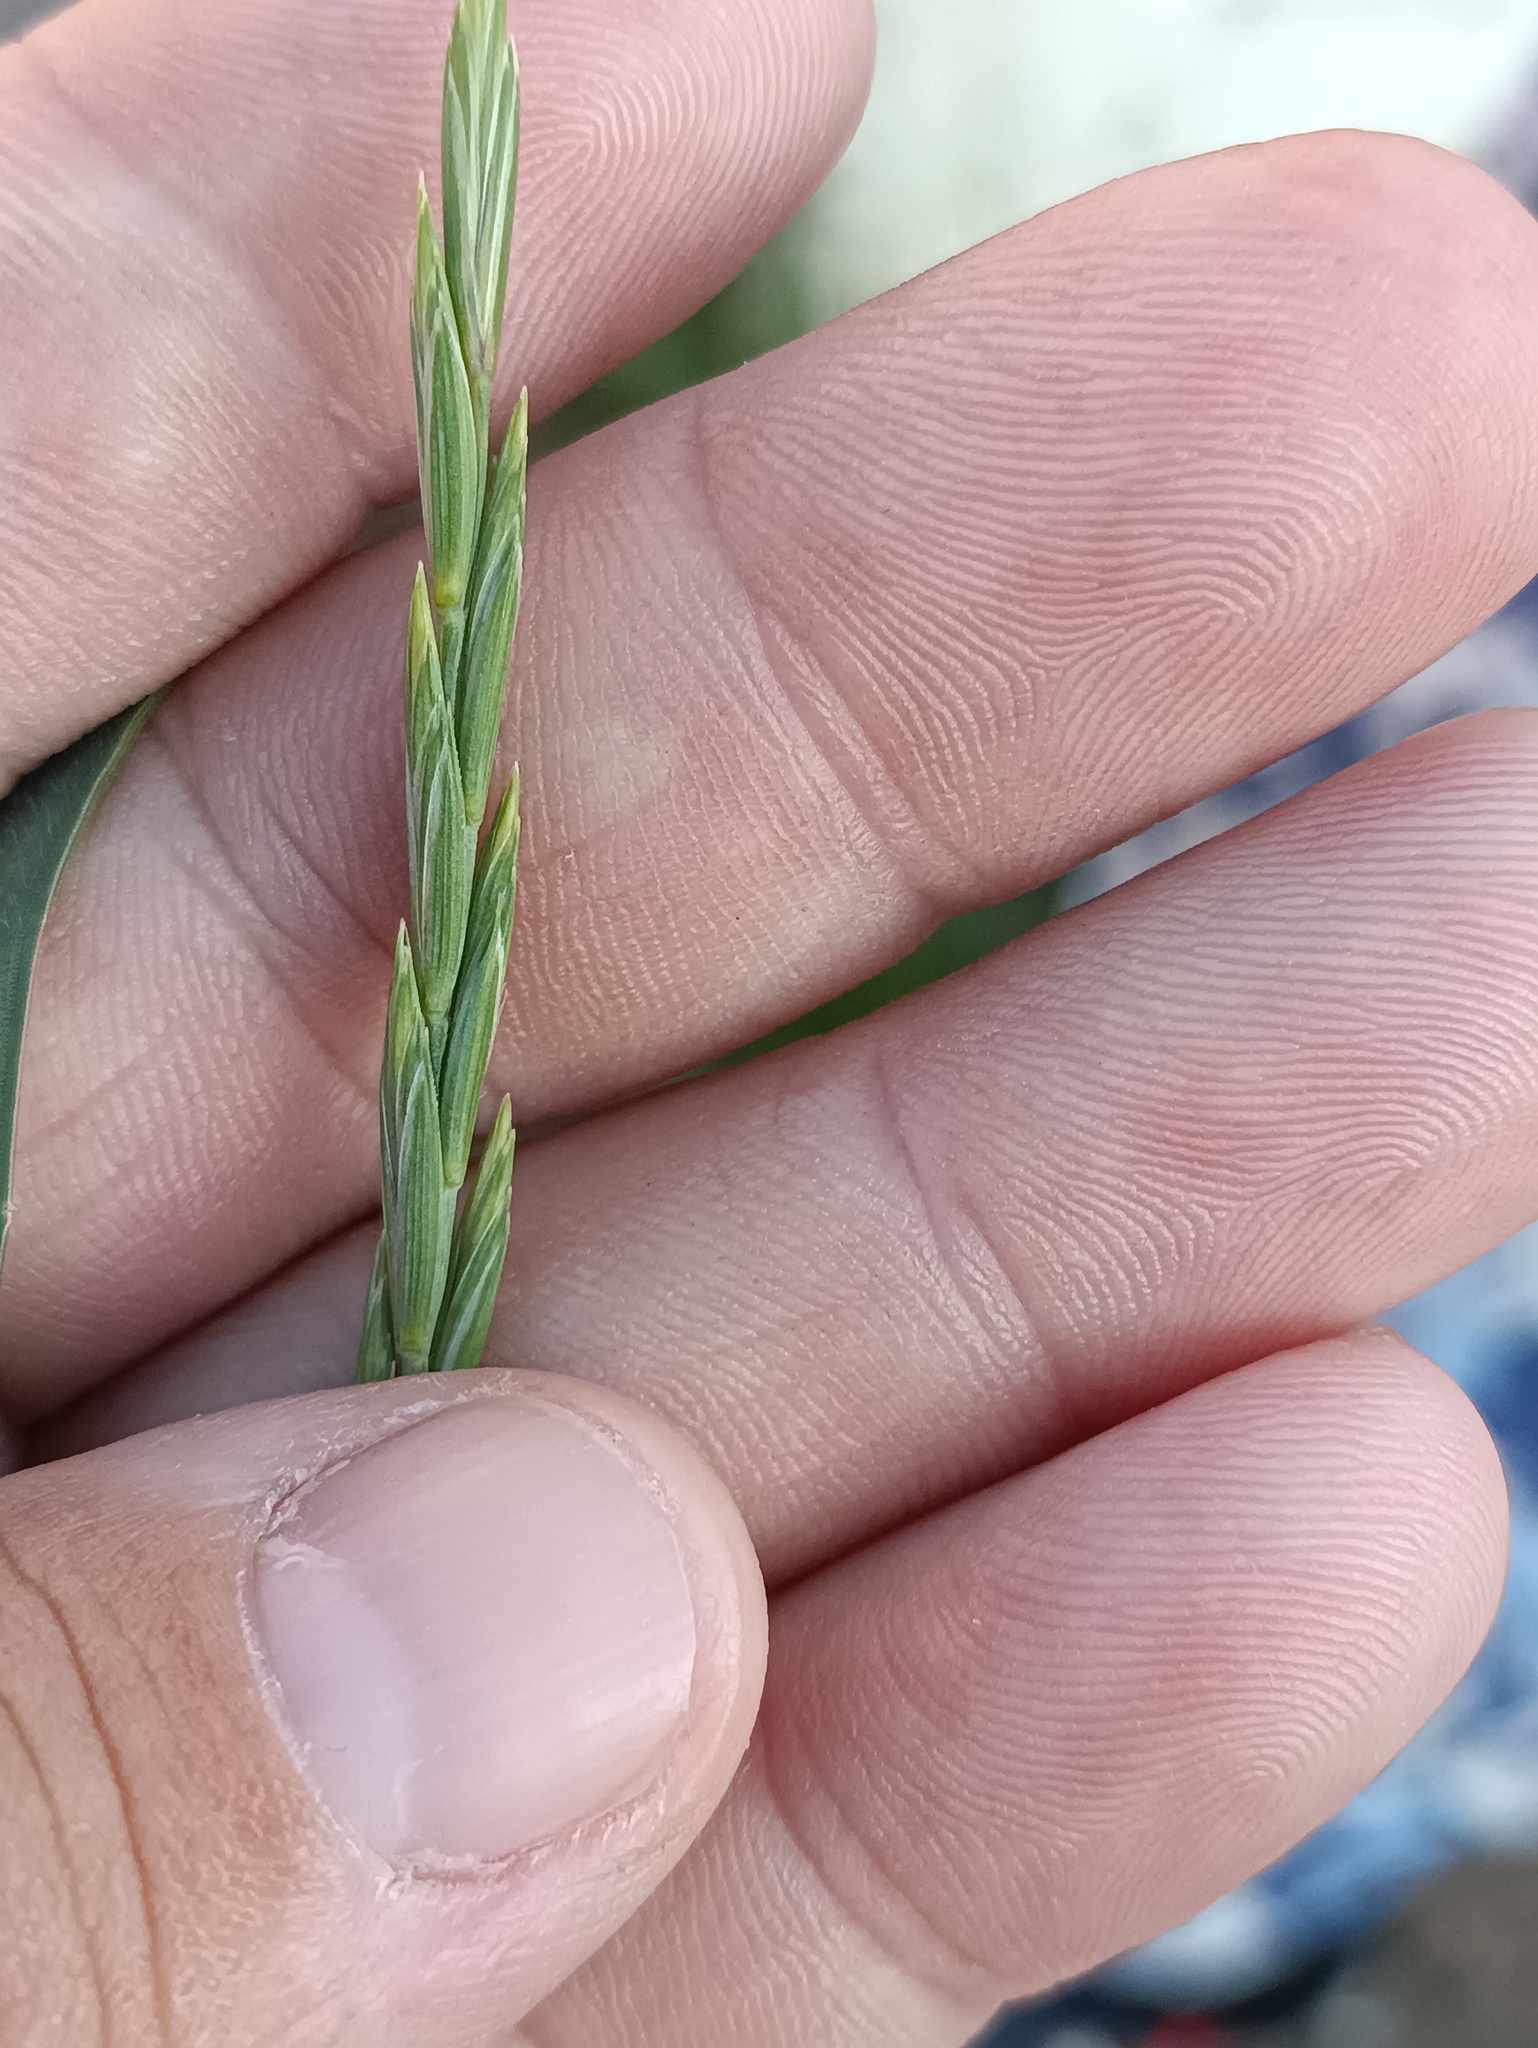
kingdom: Plantae
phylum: Tracheophyta
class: Liliopsida
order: Poales
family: Poaceae
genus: Elymus
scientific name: Elymus repens
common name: Quackgrass
